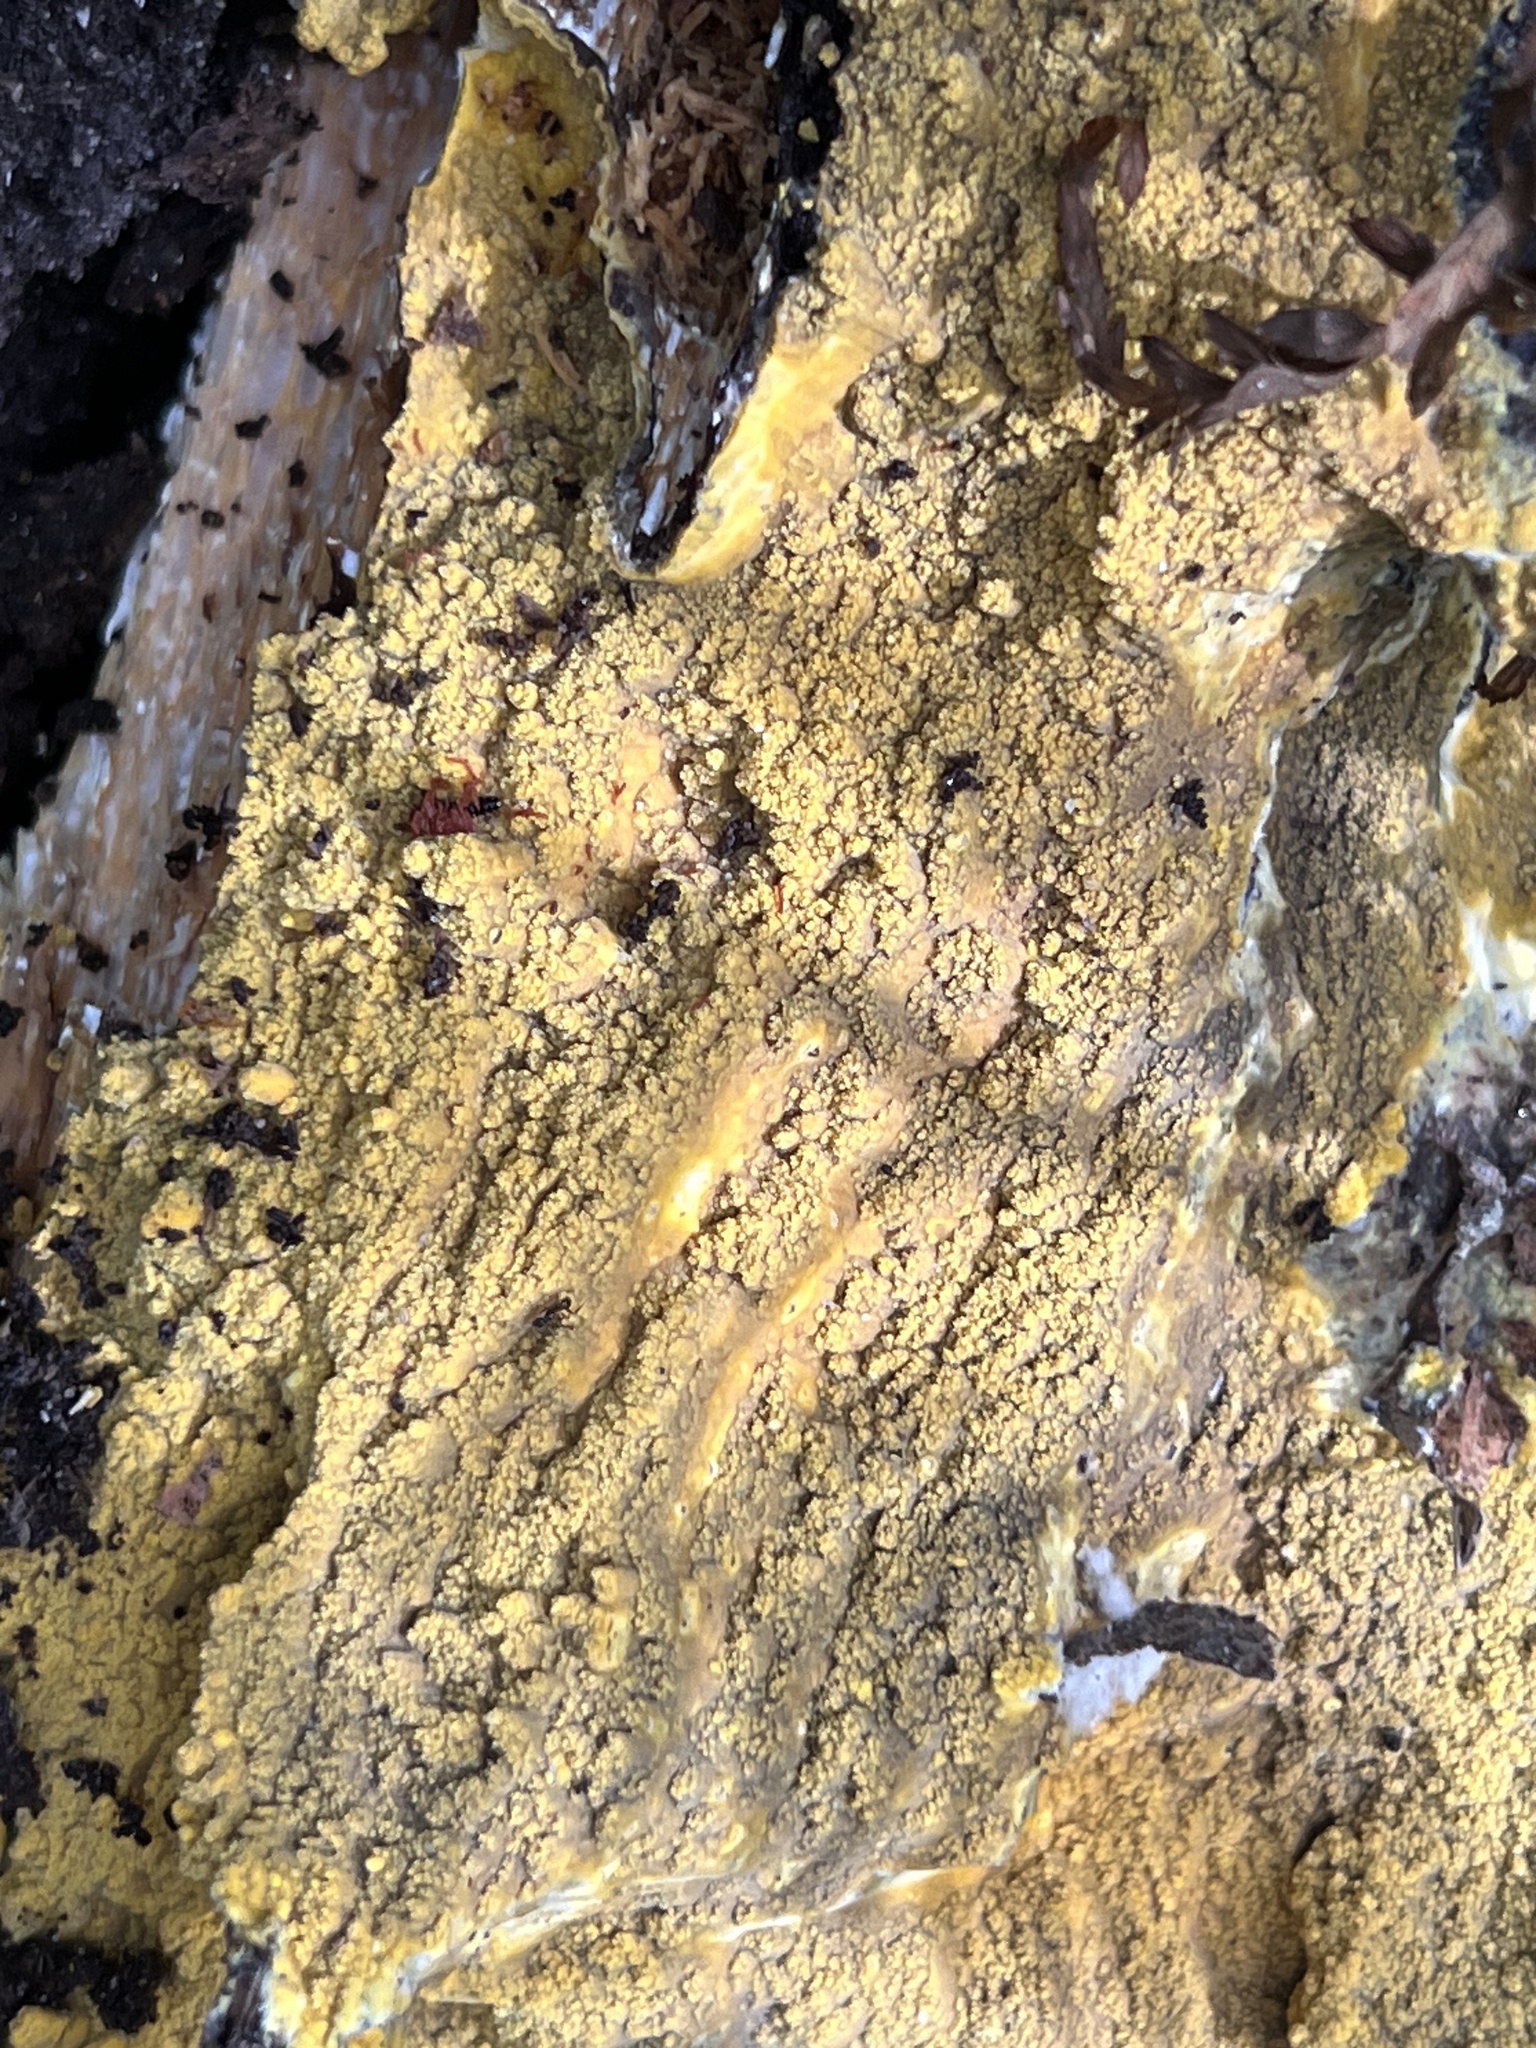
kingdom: Fungi
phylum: Basidiomycota
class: Agaricomycetes
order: Polyporales
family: Meruliaceae
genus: Phlebia
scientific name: Phlebia subceracea
